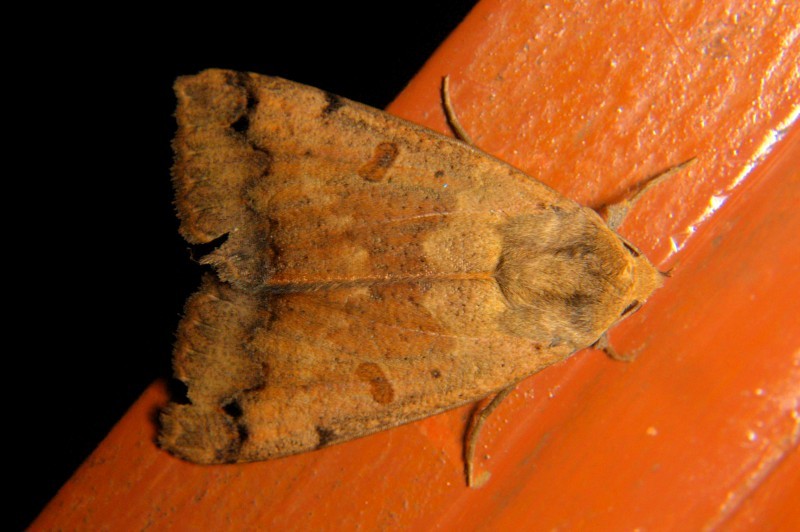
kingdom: Animalia
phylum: Arthropoda
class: Insecta
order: Lepidoptera
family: Erebidae
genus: Ophiusa
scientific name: Ophiusa tirhaca
